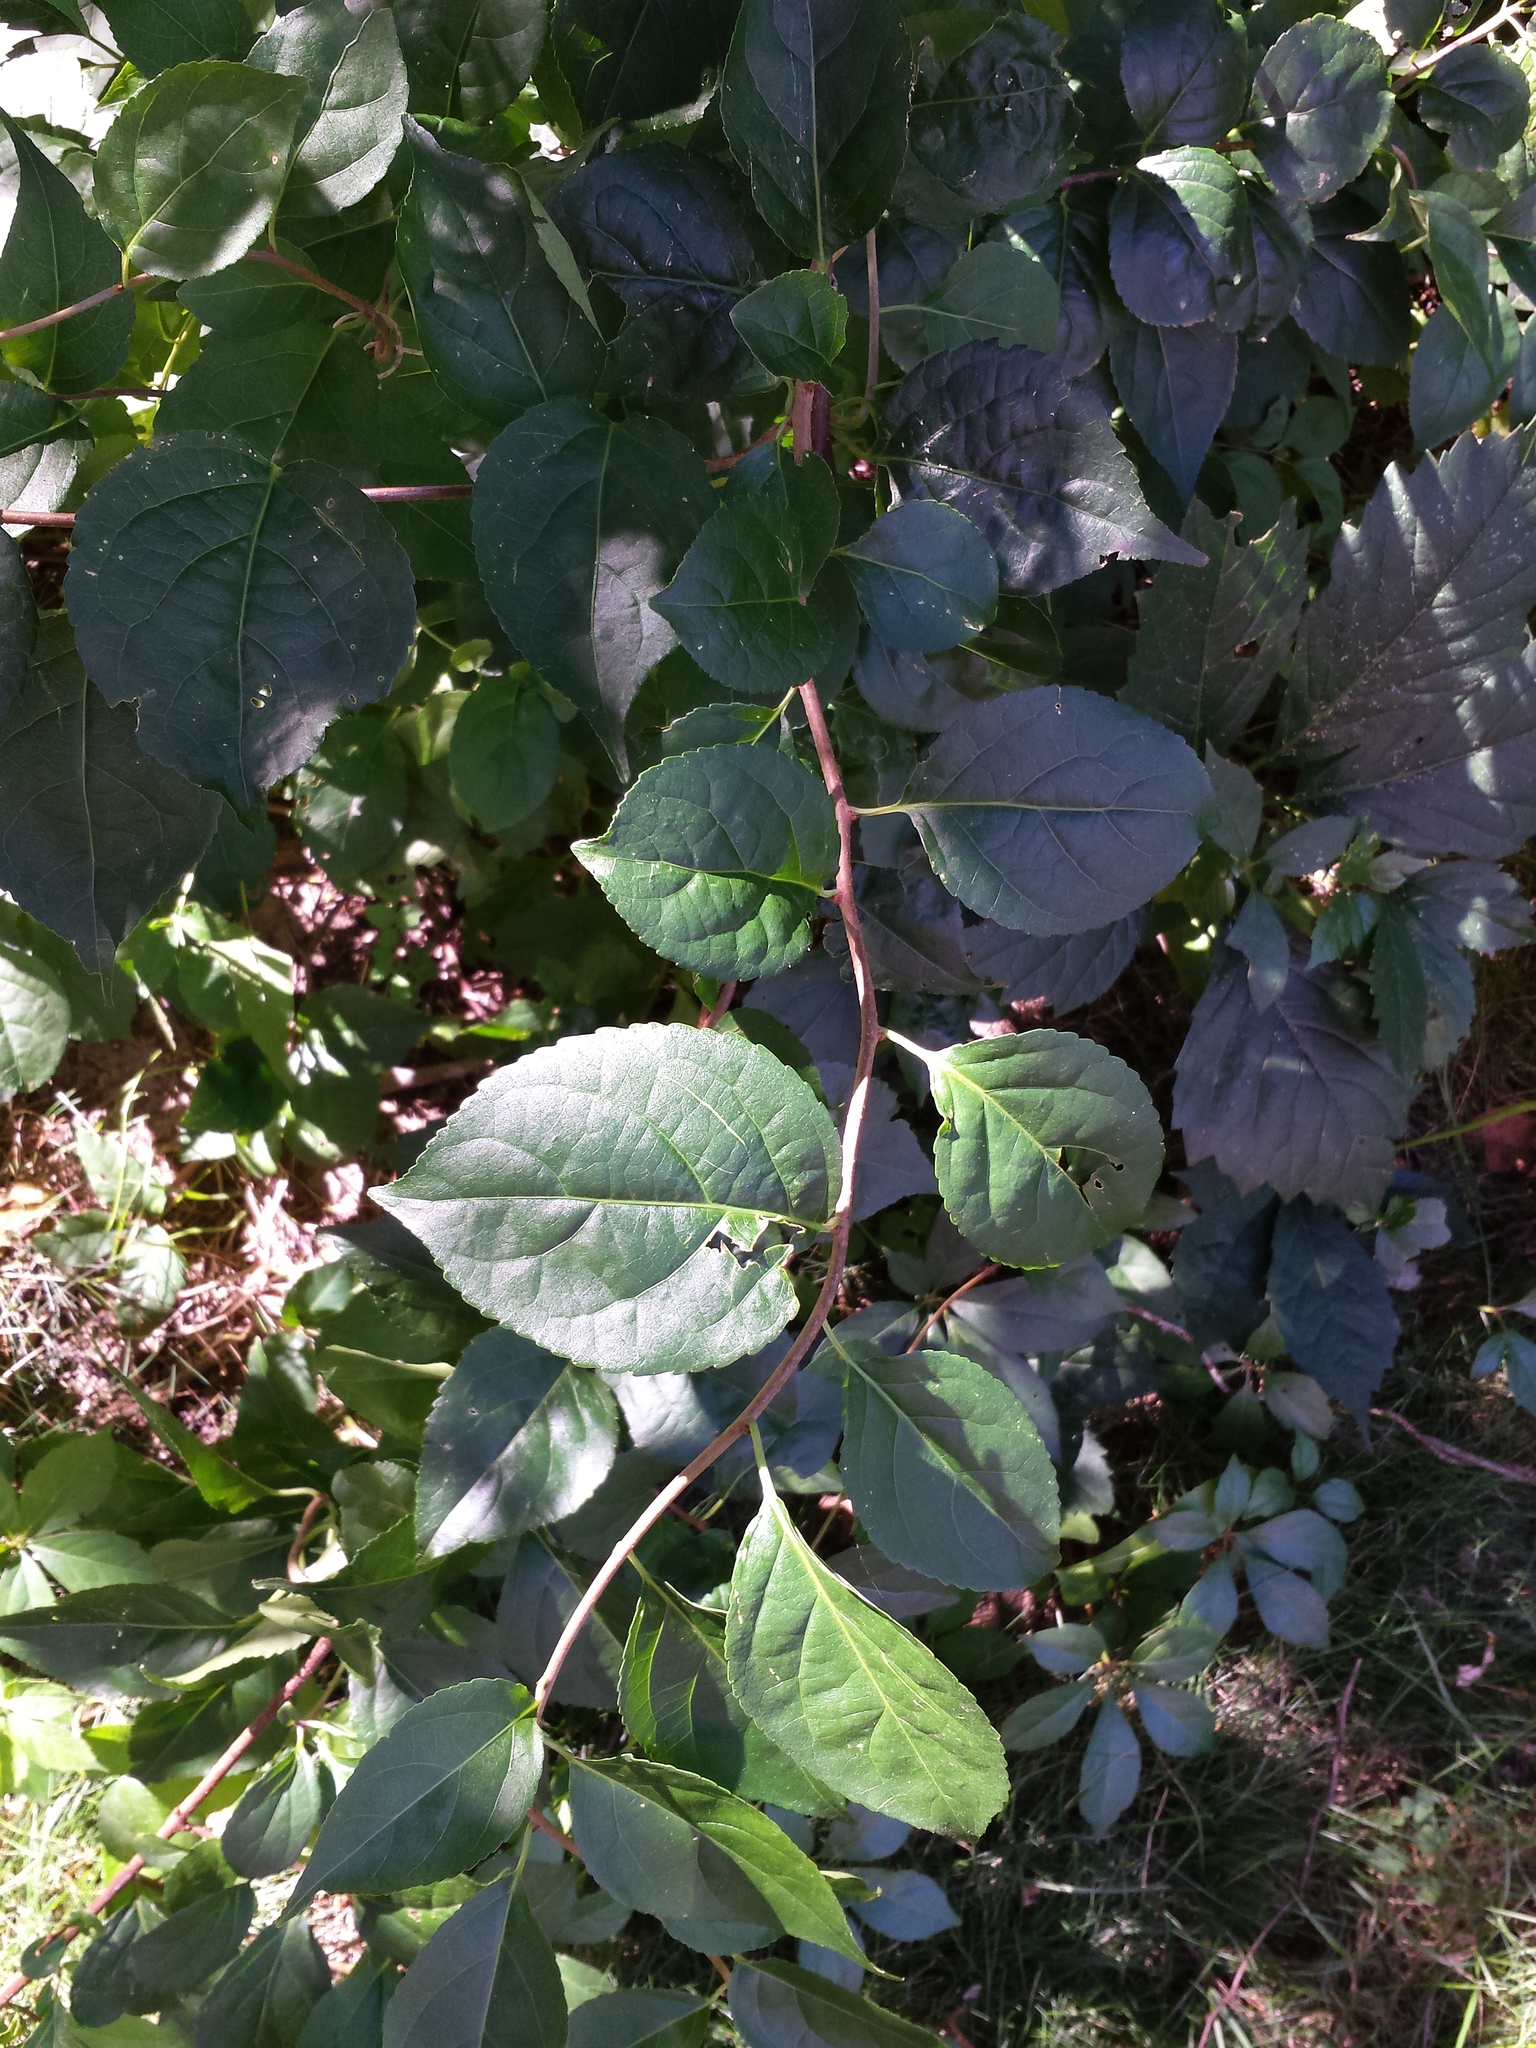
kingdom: Plantae
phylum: Tracheophyta
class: Magnoliopsida
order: Celastrales
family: Celastraceae
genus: Celastrus
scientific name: Celastrus orbiculatus
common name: Oriental bittersweet
